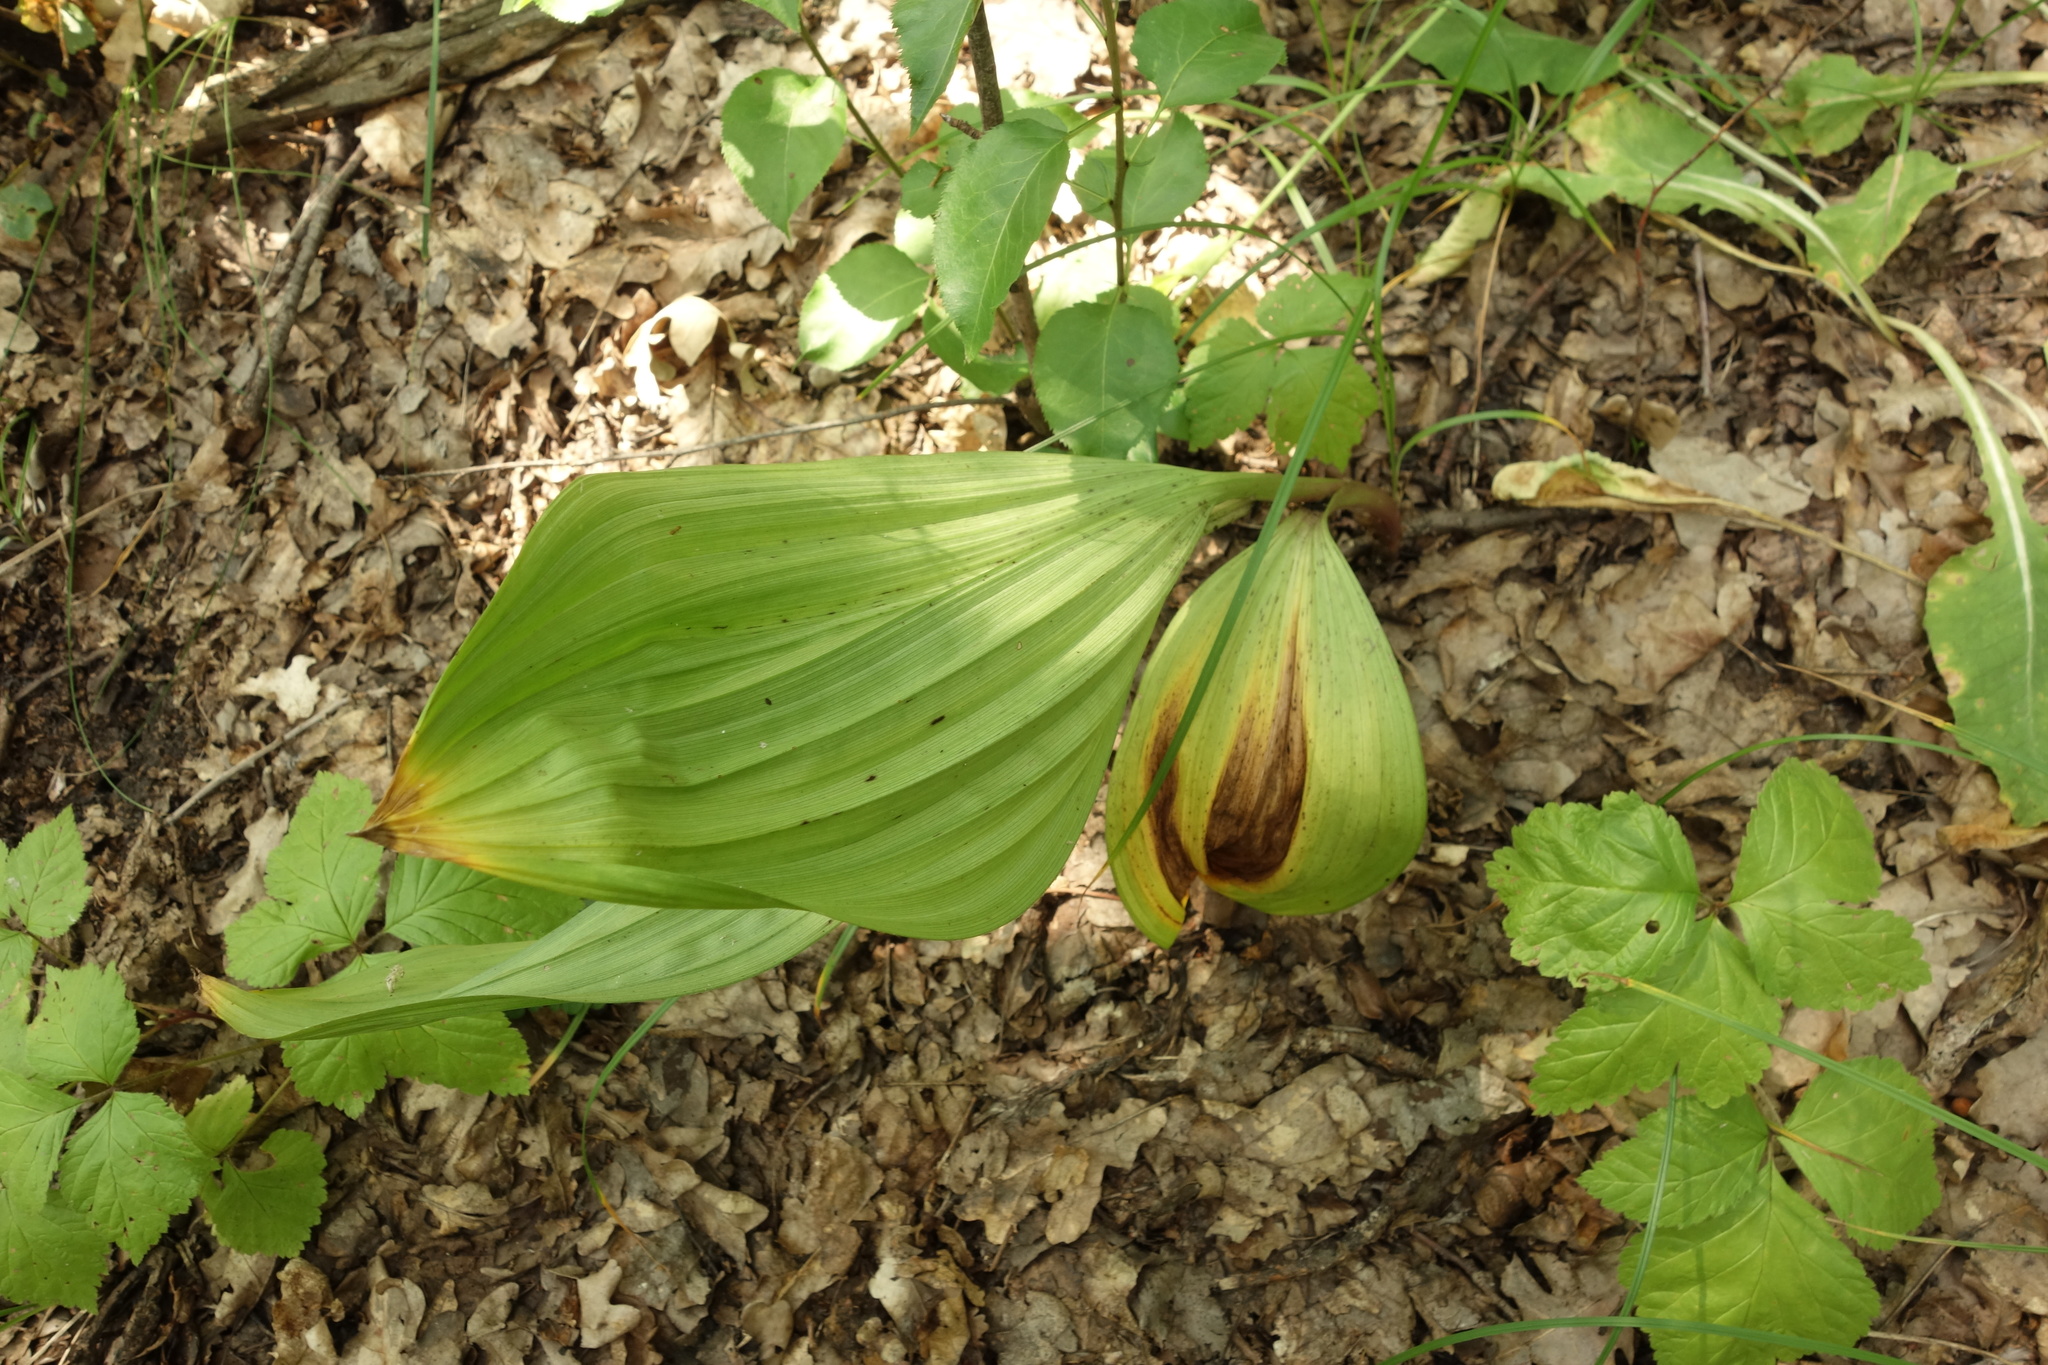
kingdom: Plantae
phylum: Tracheophyta
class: Liliopsida
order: Liliales
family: Melanthiaceae
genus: Veratrum
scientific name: Veratrum nigrum
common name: Black veratrum
